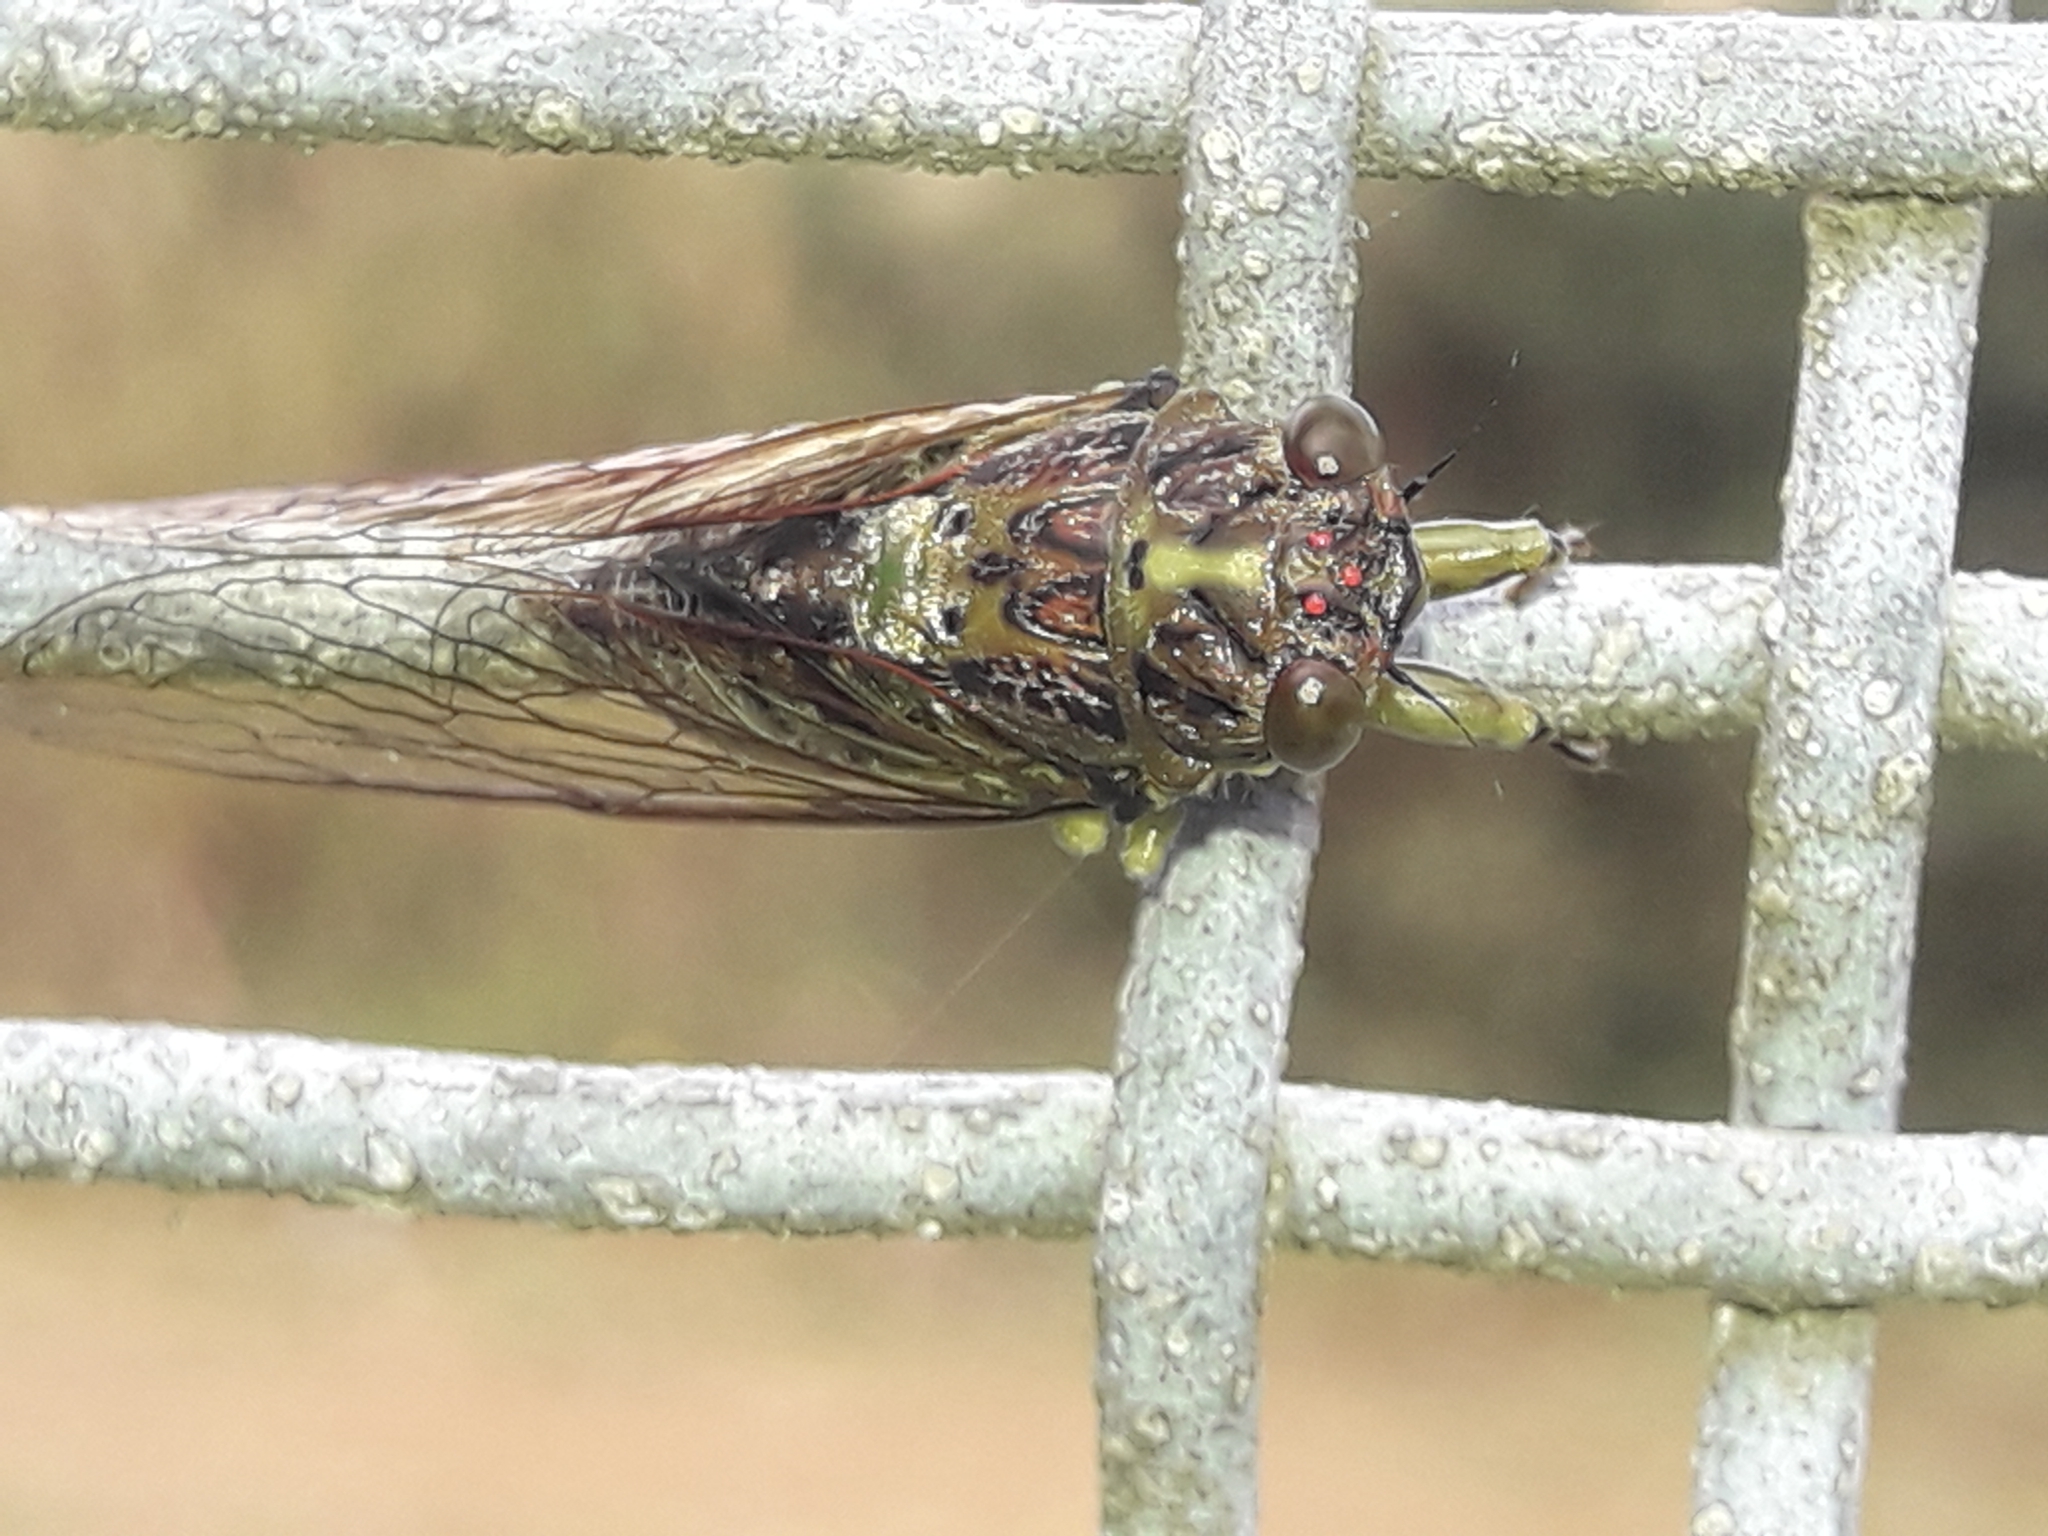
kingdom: Animalia
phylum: Arthropoda
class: Insecta
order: Hemiptera
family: Cicadidae
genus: Kikihia
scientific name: Kikihia scutellaris
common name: Lesser bronze cicada
